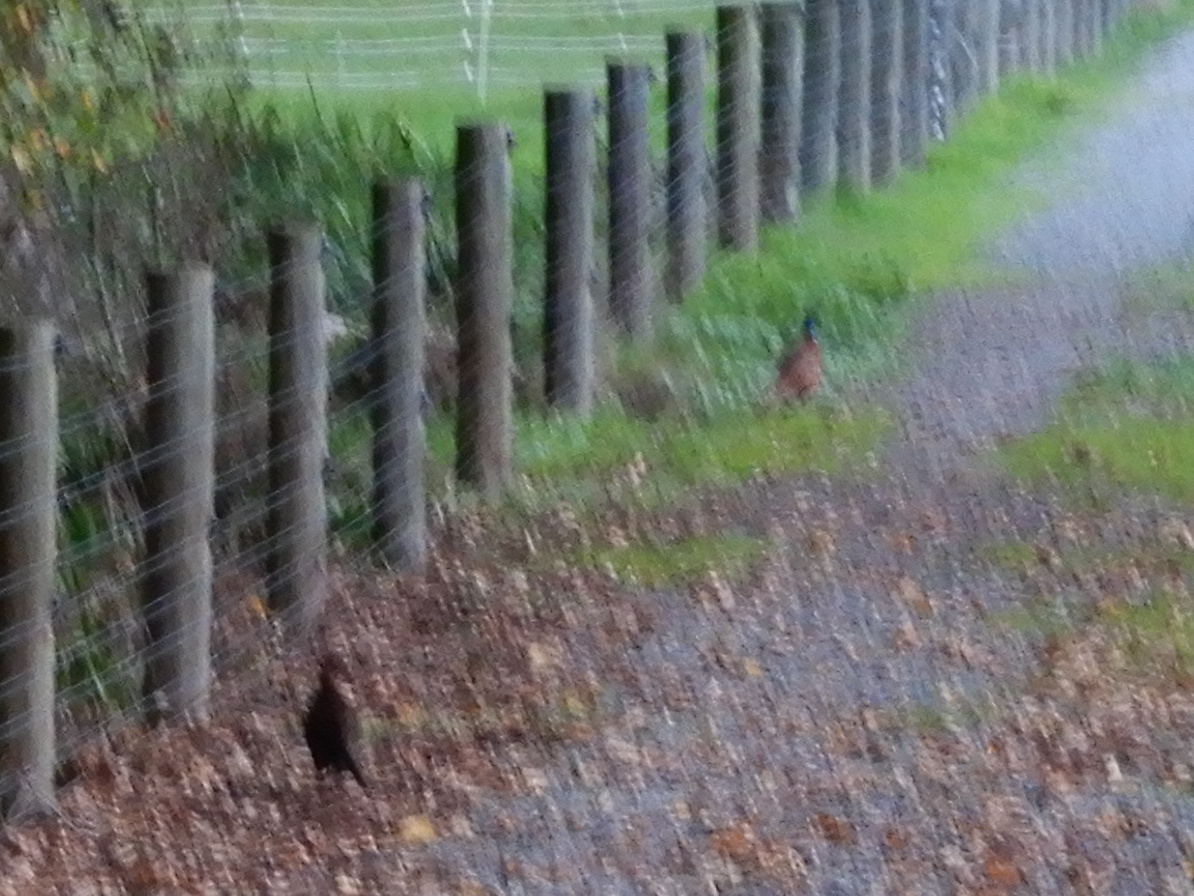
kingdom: Animalia
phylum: Chordata
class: Aves
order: Galliformes
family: Phasianidae
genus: Phasianus
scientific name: Phasianus colchicus
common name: Common pheasant
